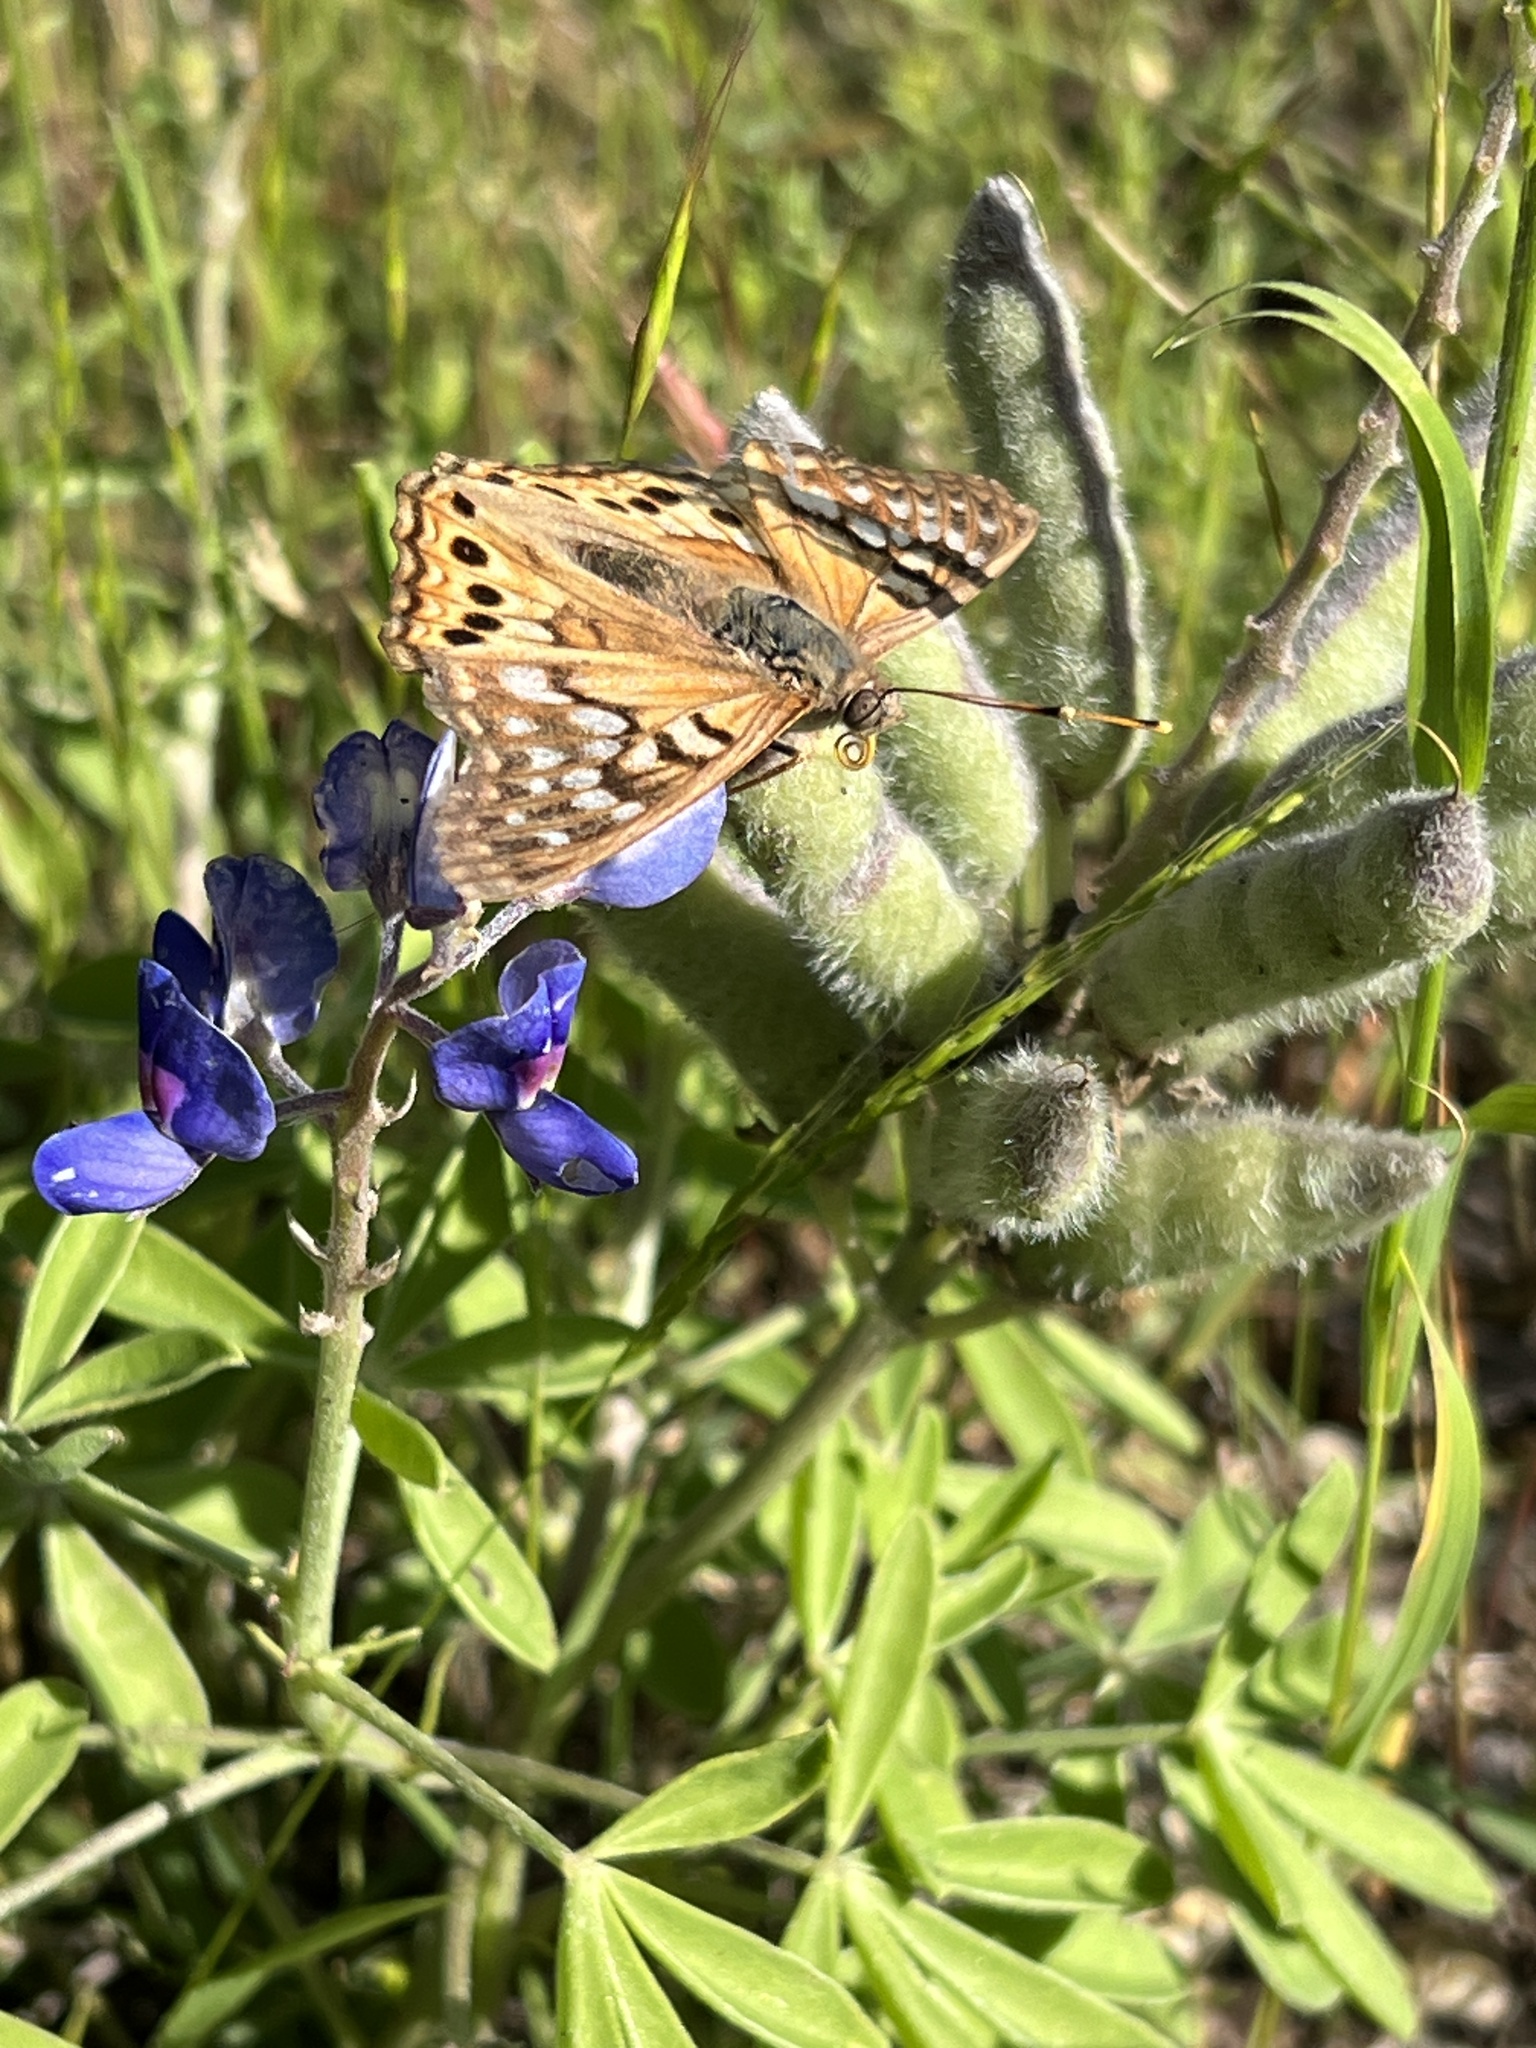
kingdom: Animalia
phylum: Arthropoda
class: Insecta
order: Lepidoptera
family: Nymphalidae
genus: Asterocampa
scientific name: Asterocampa clyton
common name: Tawny emperor
